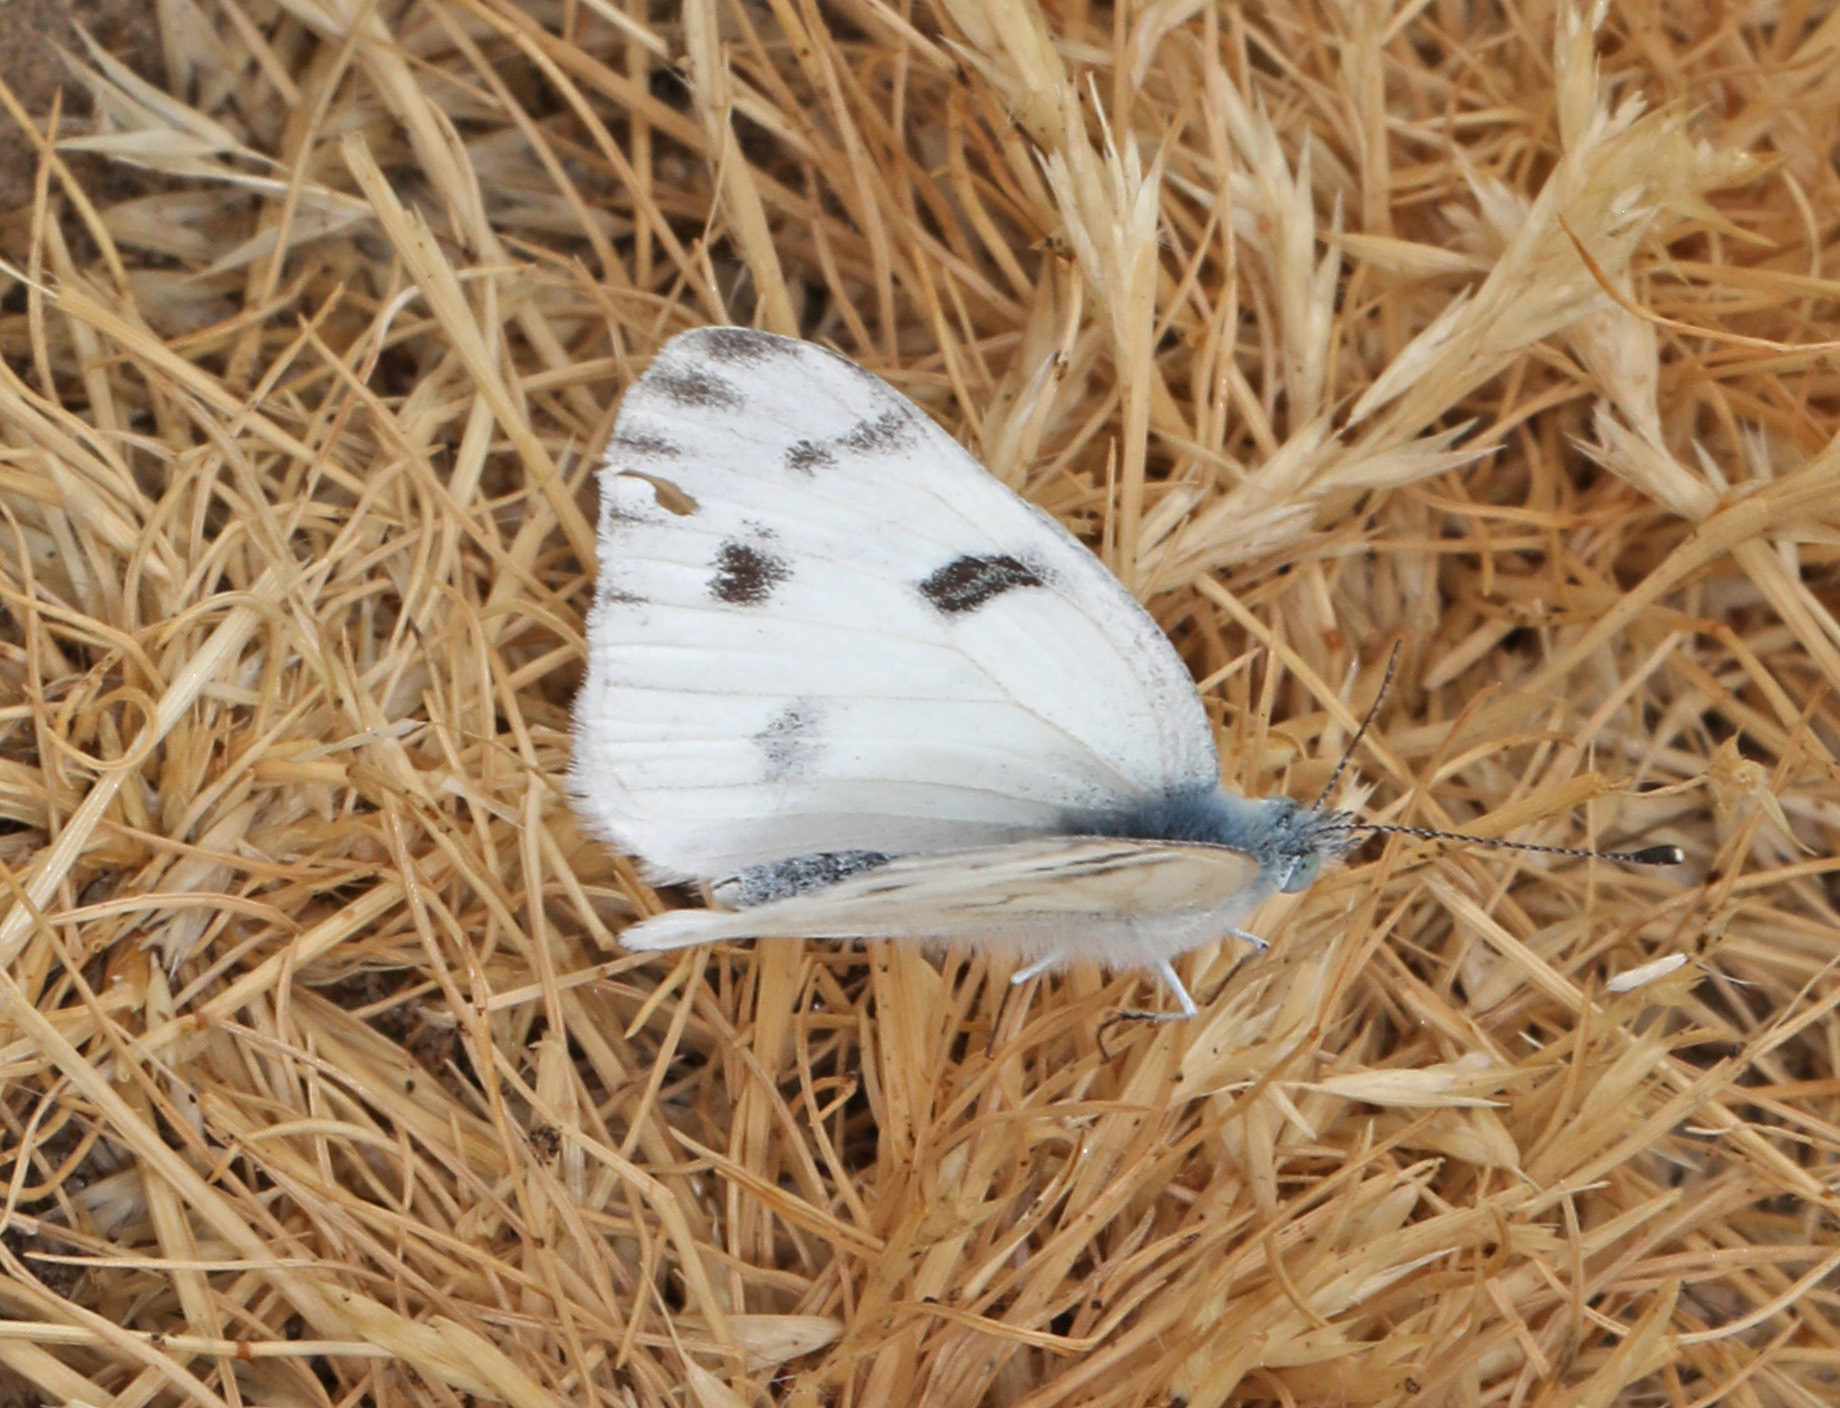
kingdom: Animalia
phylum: Arthropoda
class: Insecta
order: Lepidoptera
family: Pieridae
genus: Pontia
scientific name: Pontia protodice
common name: Checkered white
